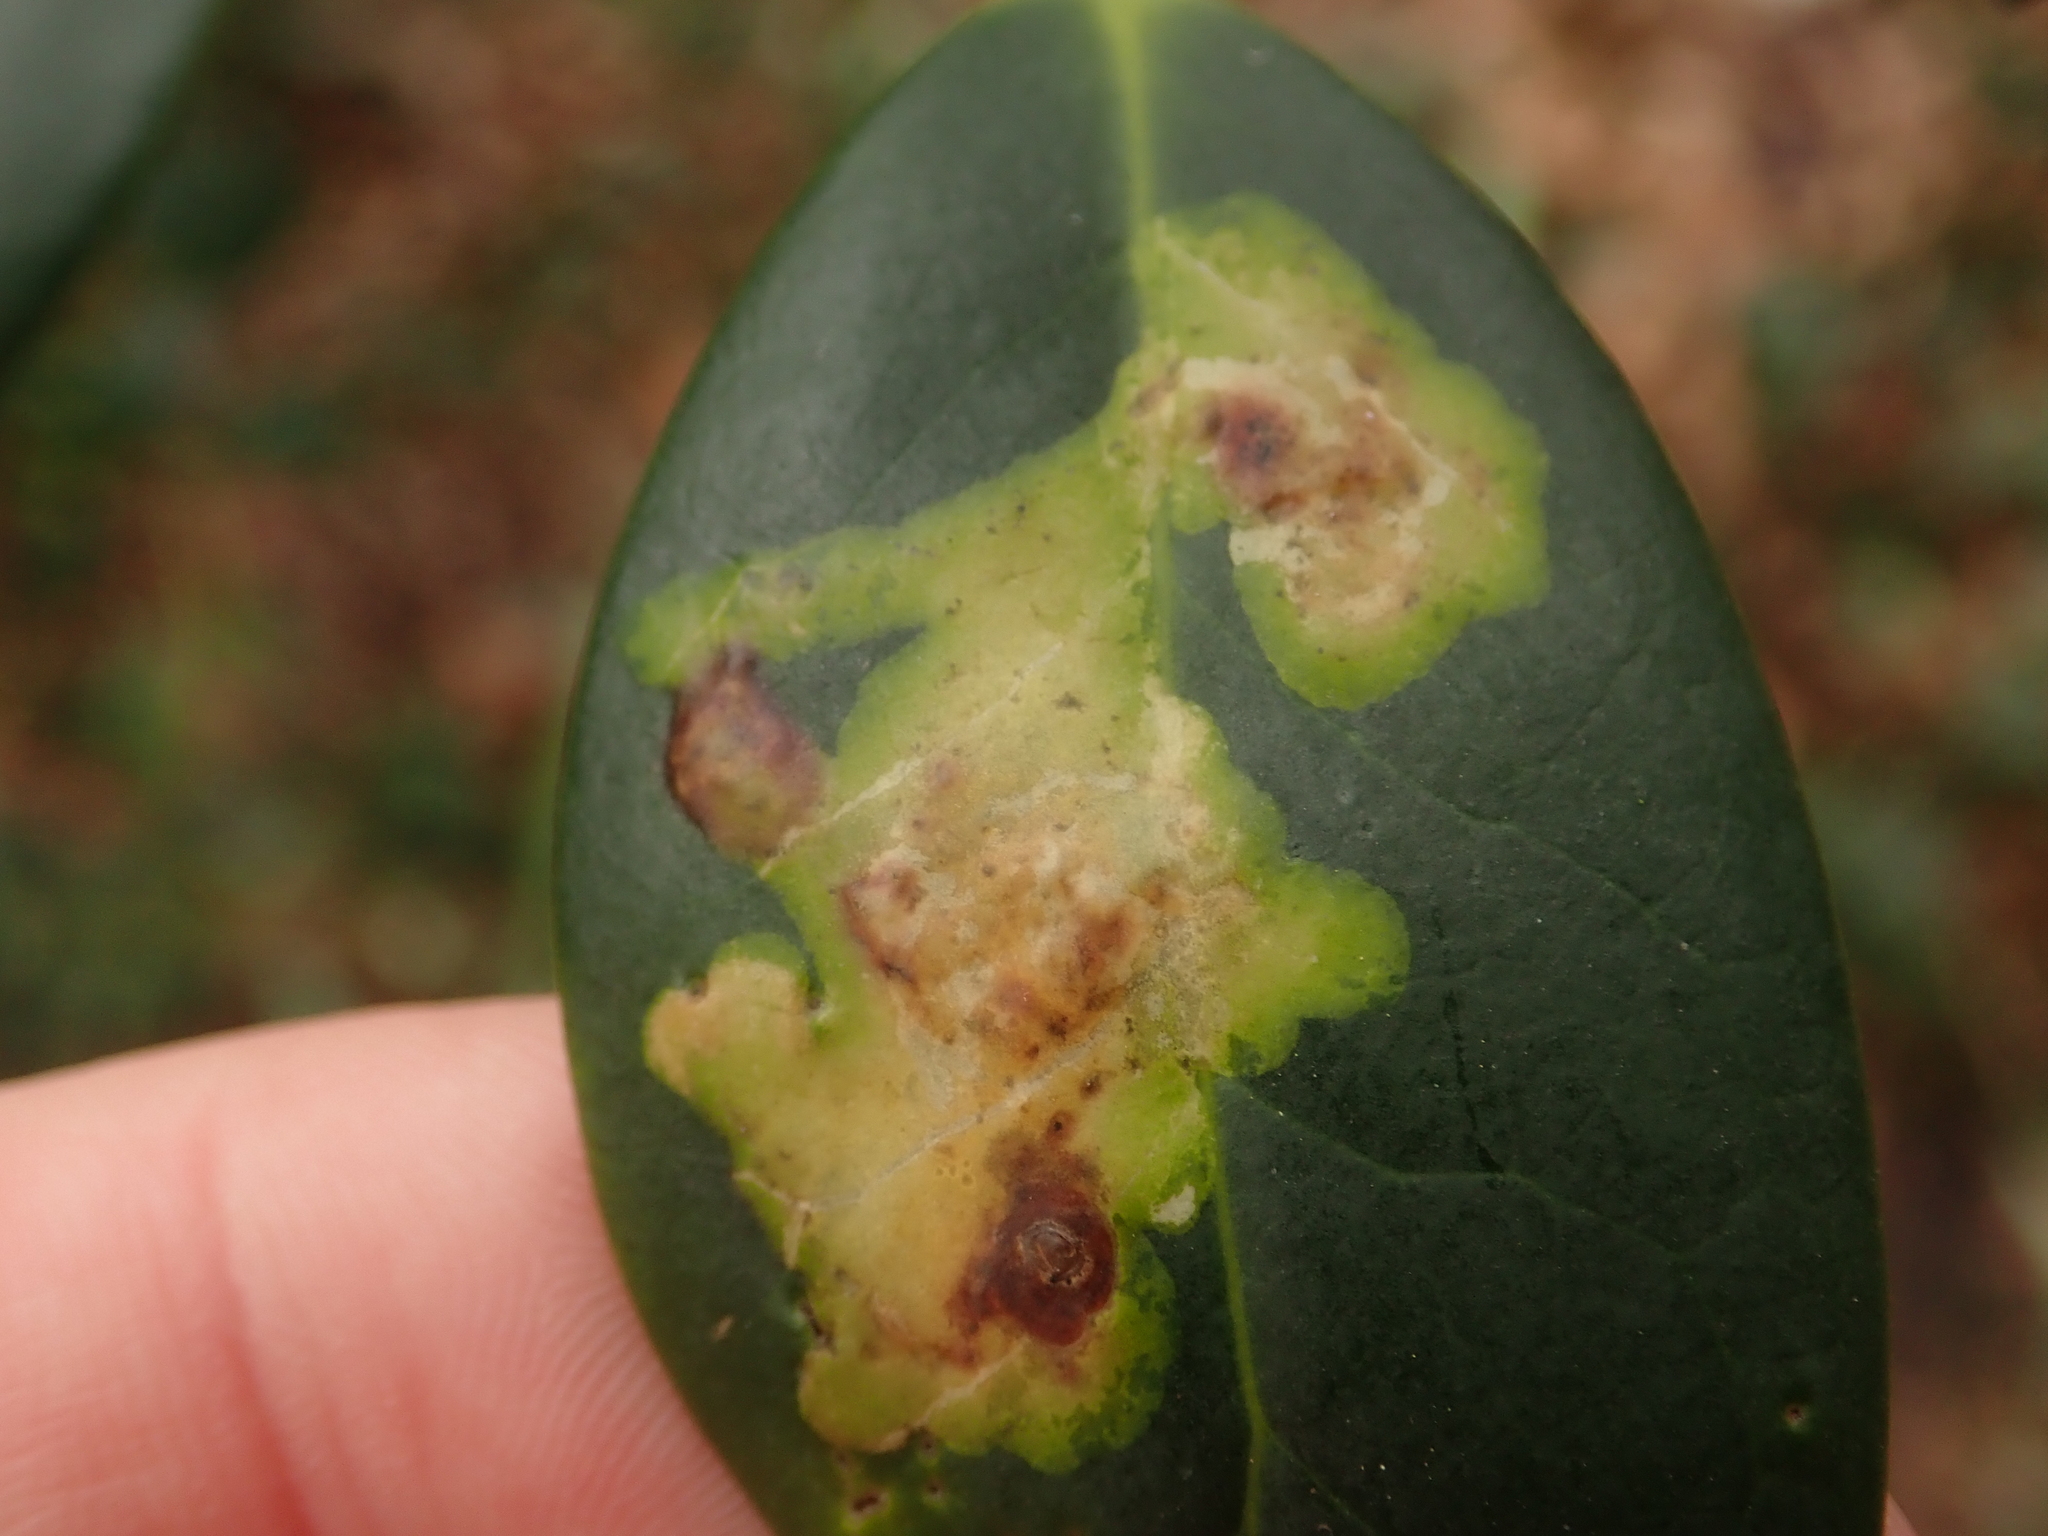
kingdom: Animalia
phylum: Arthropoda
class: Insecta
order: Diptera
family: Agromyzidae
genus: Phytomyza
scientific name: Phytomyza ilicis
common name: Holly leafminer
